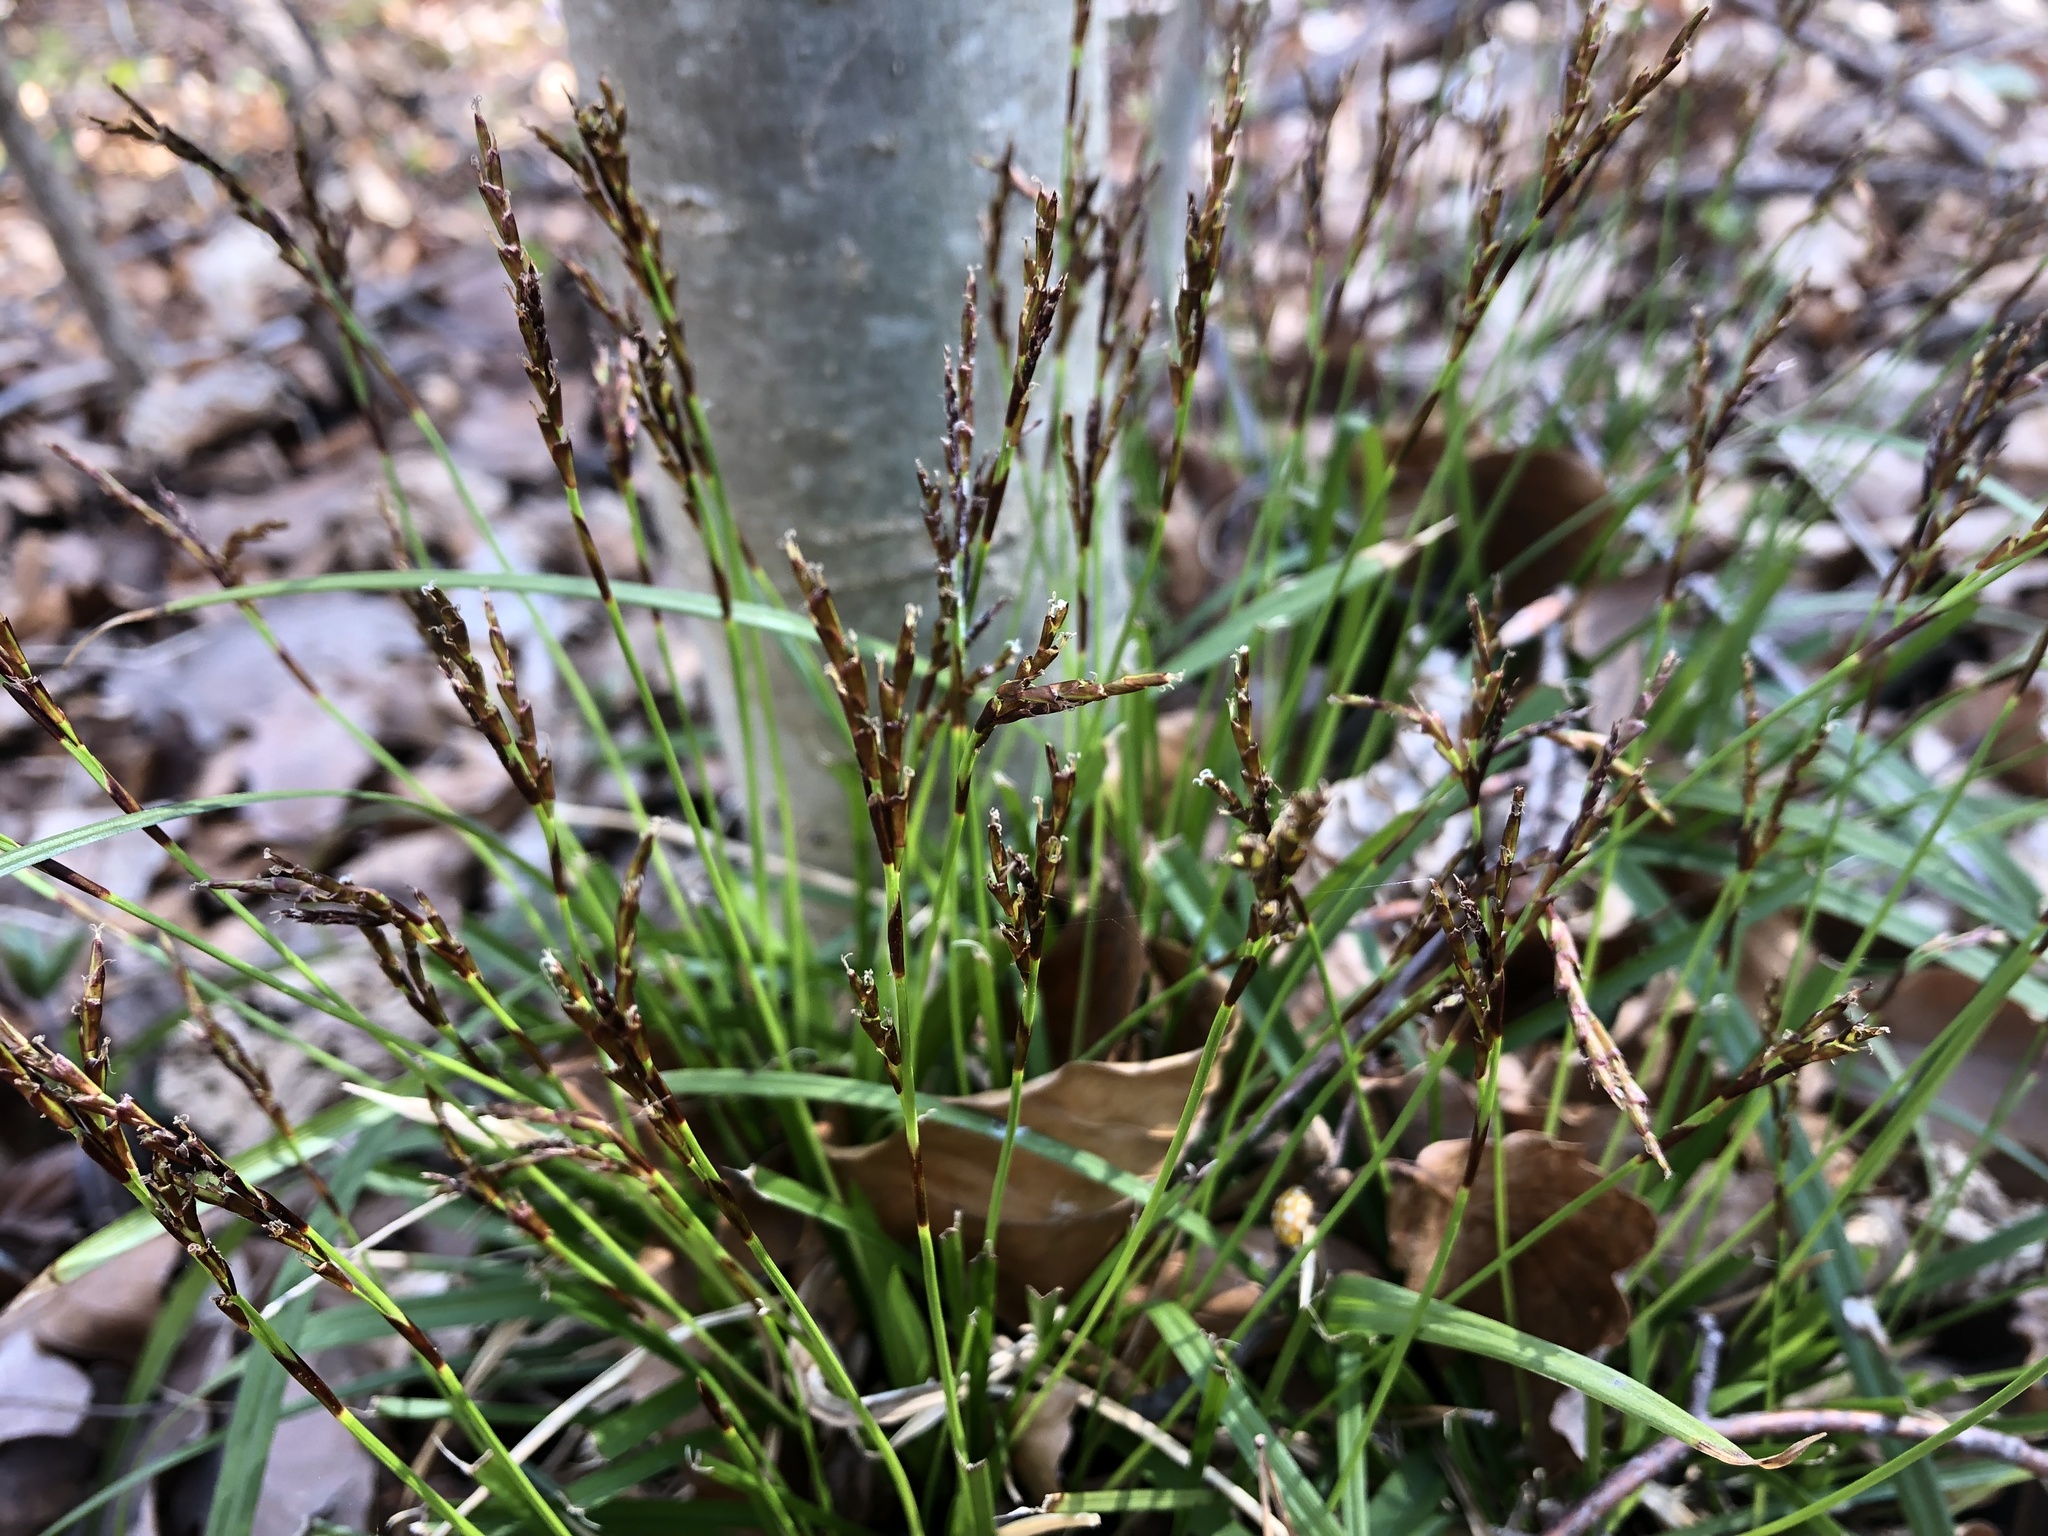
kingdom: Plantae
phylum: Tracheophyta
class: Liliopsida
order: Poales
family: Cyperaceae
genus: Carex
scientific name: Carex digitata
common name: Fingered sedge
